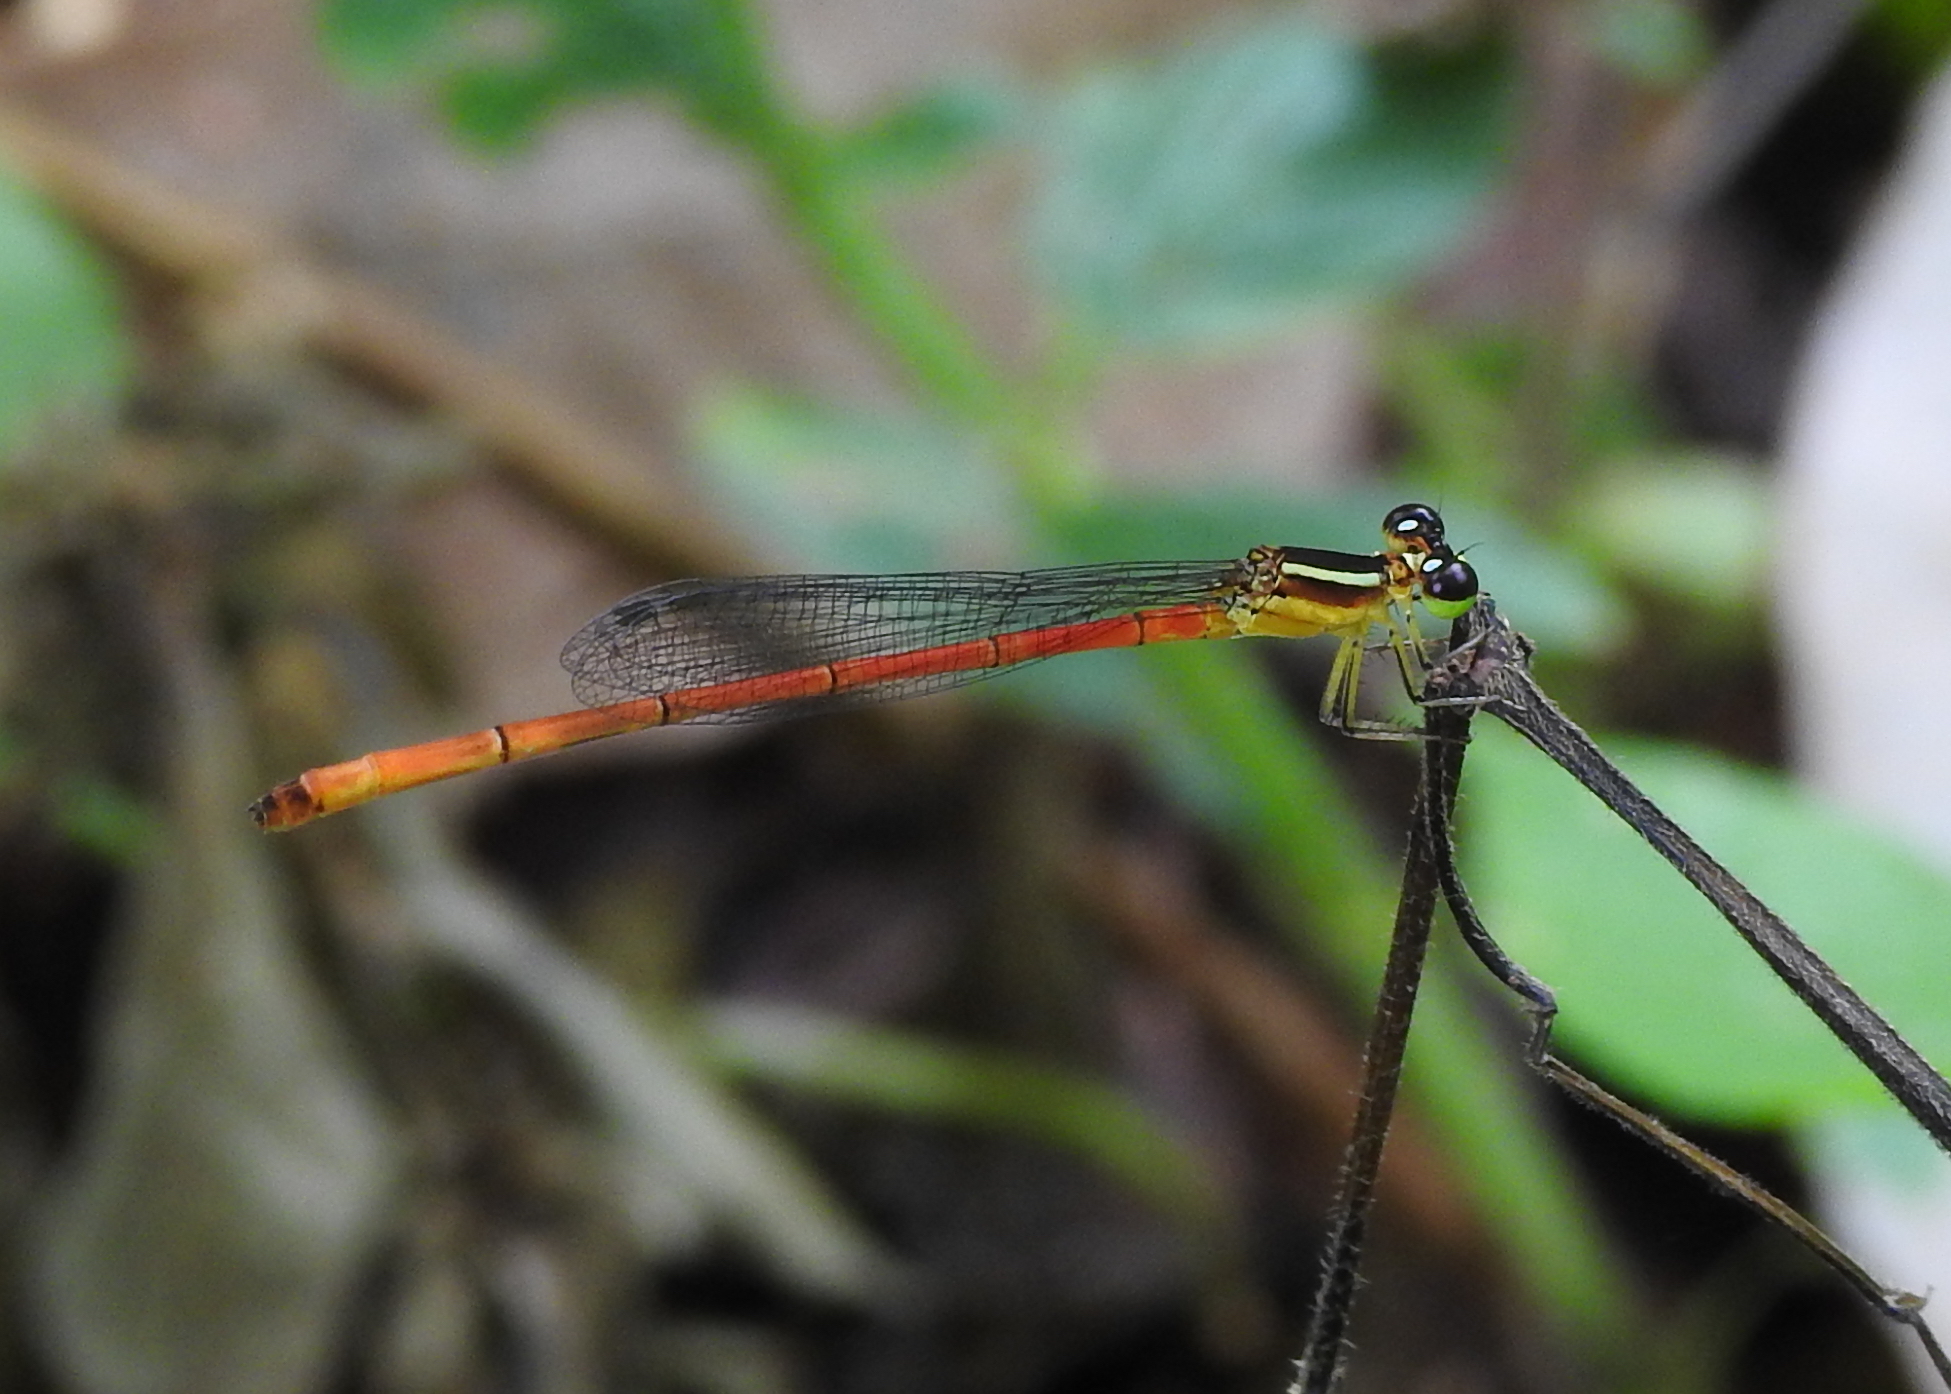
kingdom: Animalia
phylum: Arthropoda
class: Insecta
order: Odonata
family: Coenagrionidae
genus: Argiocnemis
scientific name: Argiocnemis rubescens
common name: Red-tipped shadefly
